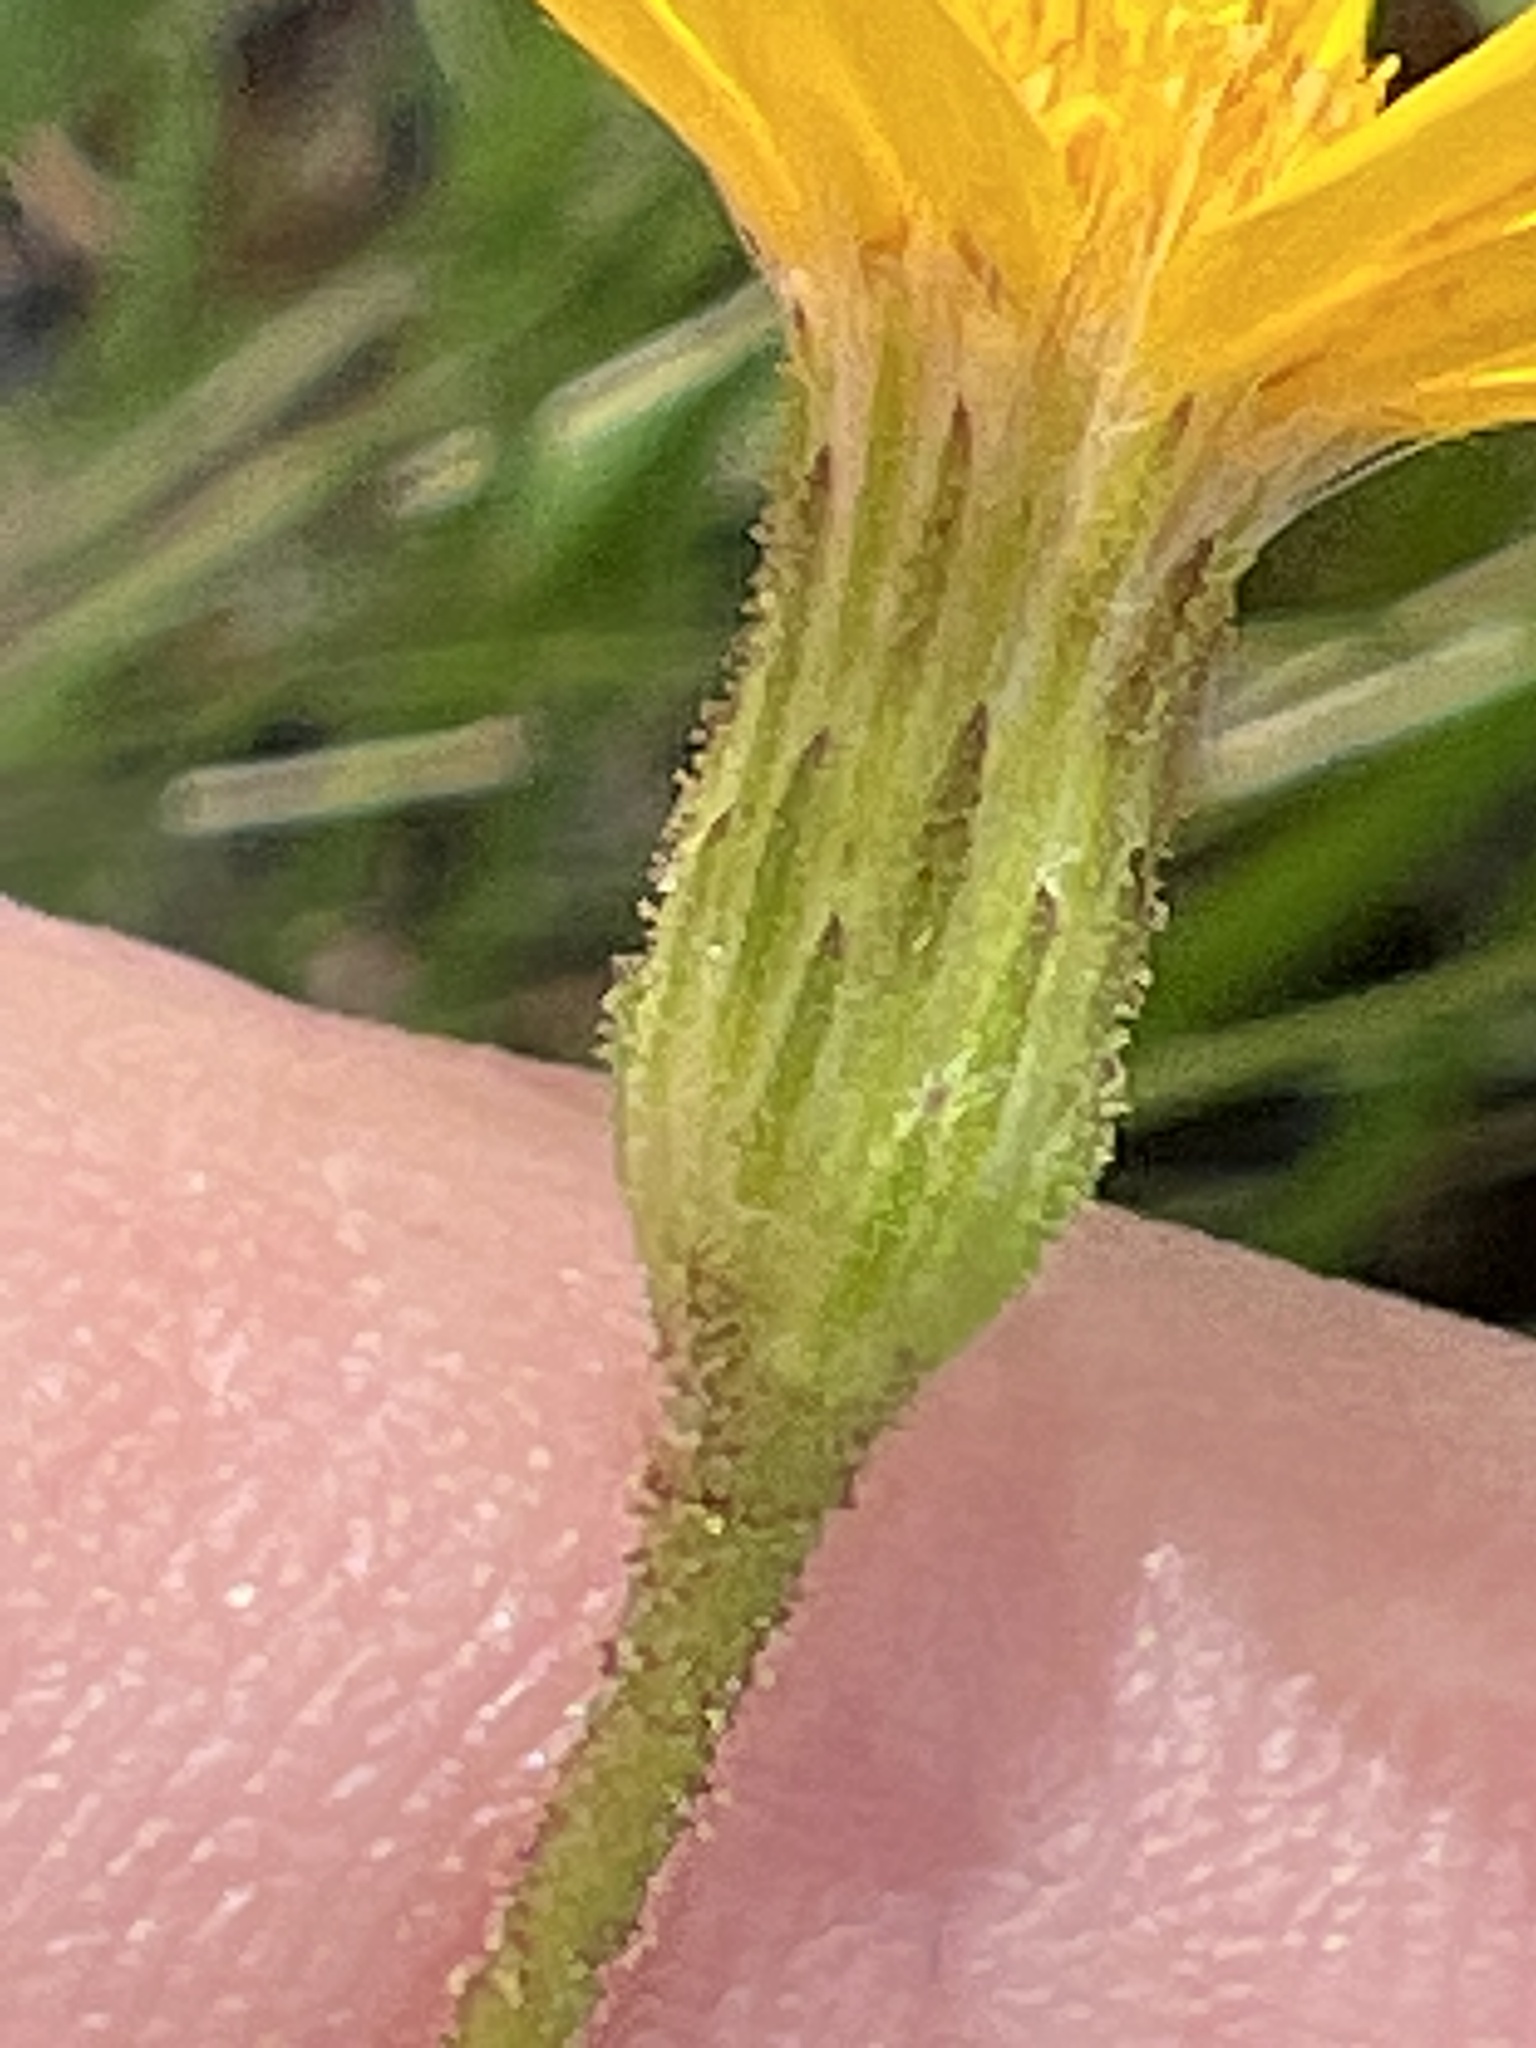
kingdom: Plantae
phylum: Tracheophyta
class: Magnoliopsida
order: Asterales
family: Asteraceae
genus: Pityopsis
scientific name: Pityopsis oligantha
